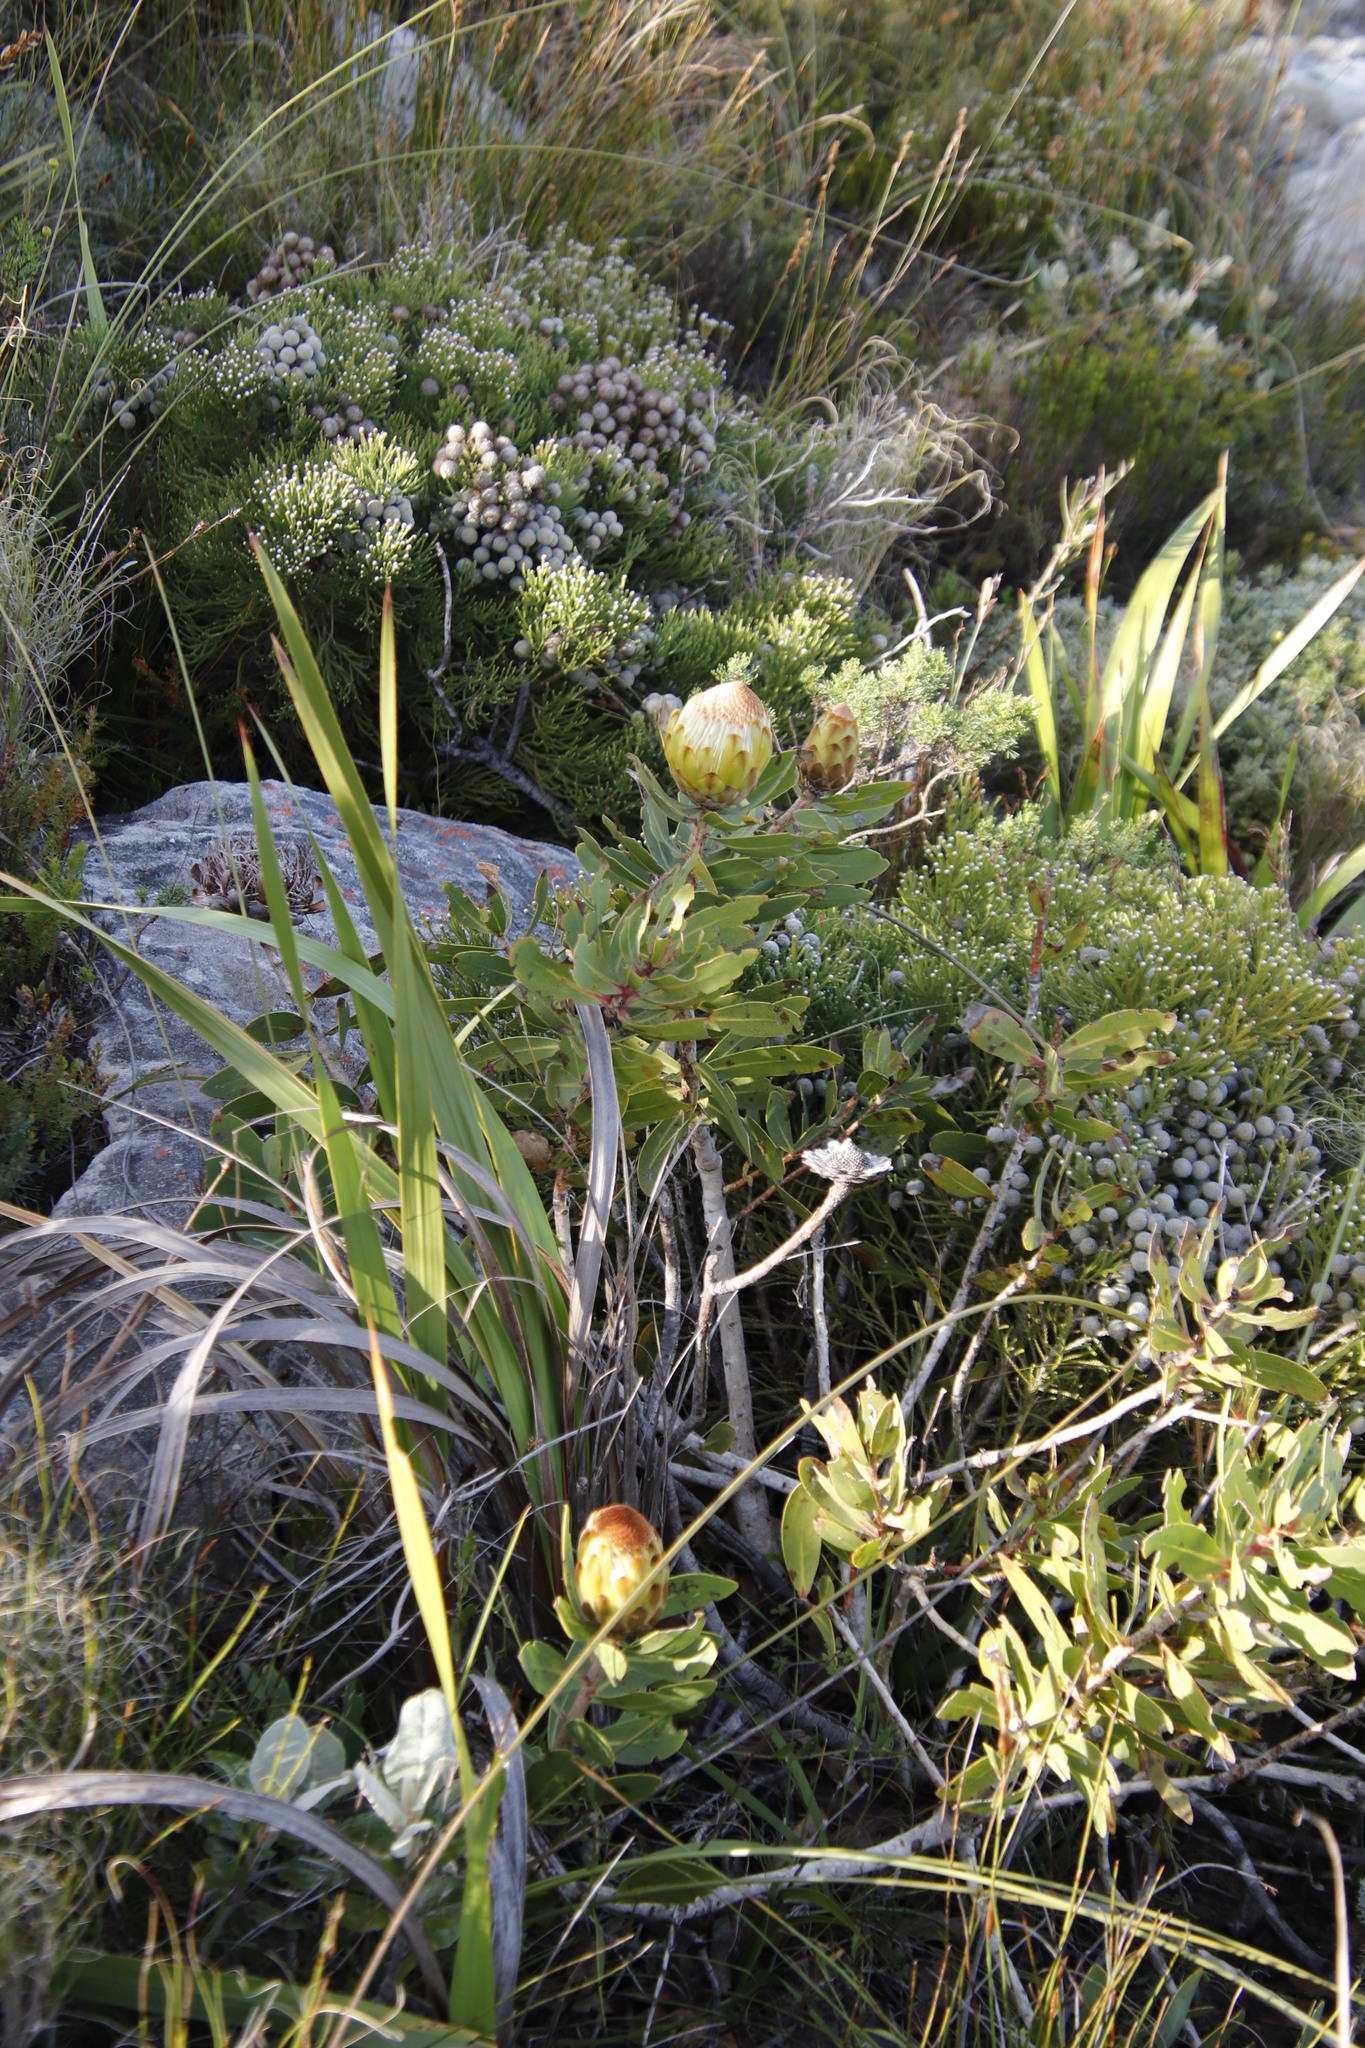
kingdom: Plantae
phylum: Tracheophyta
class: Magnoliopsida
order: Proteales
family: Proteaceae
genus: Protea
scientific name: Protea nitida
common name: Tree protea
